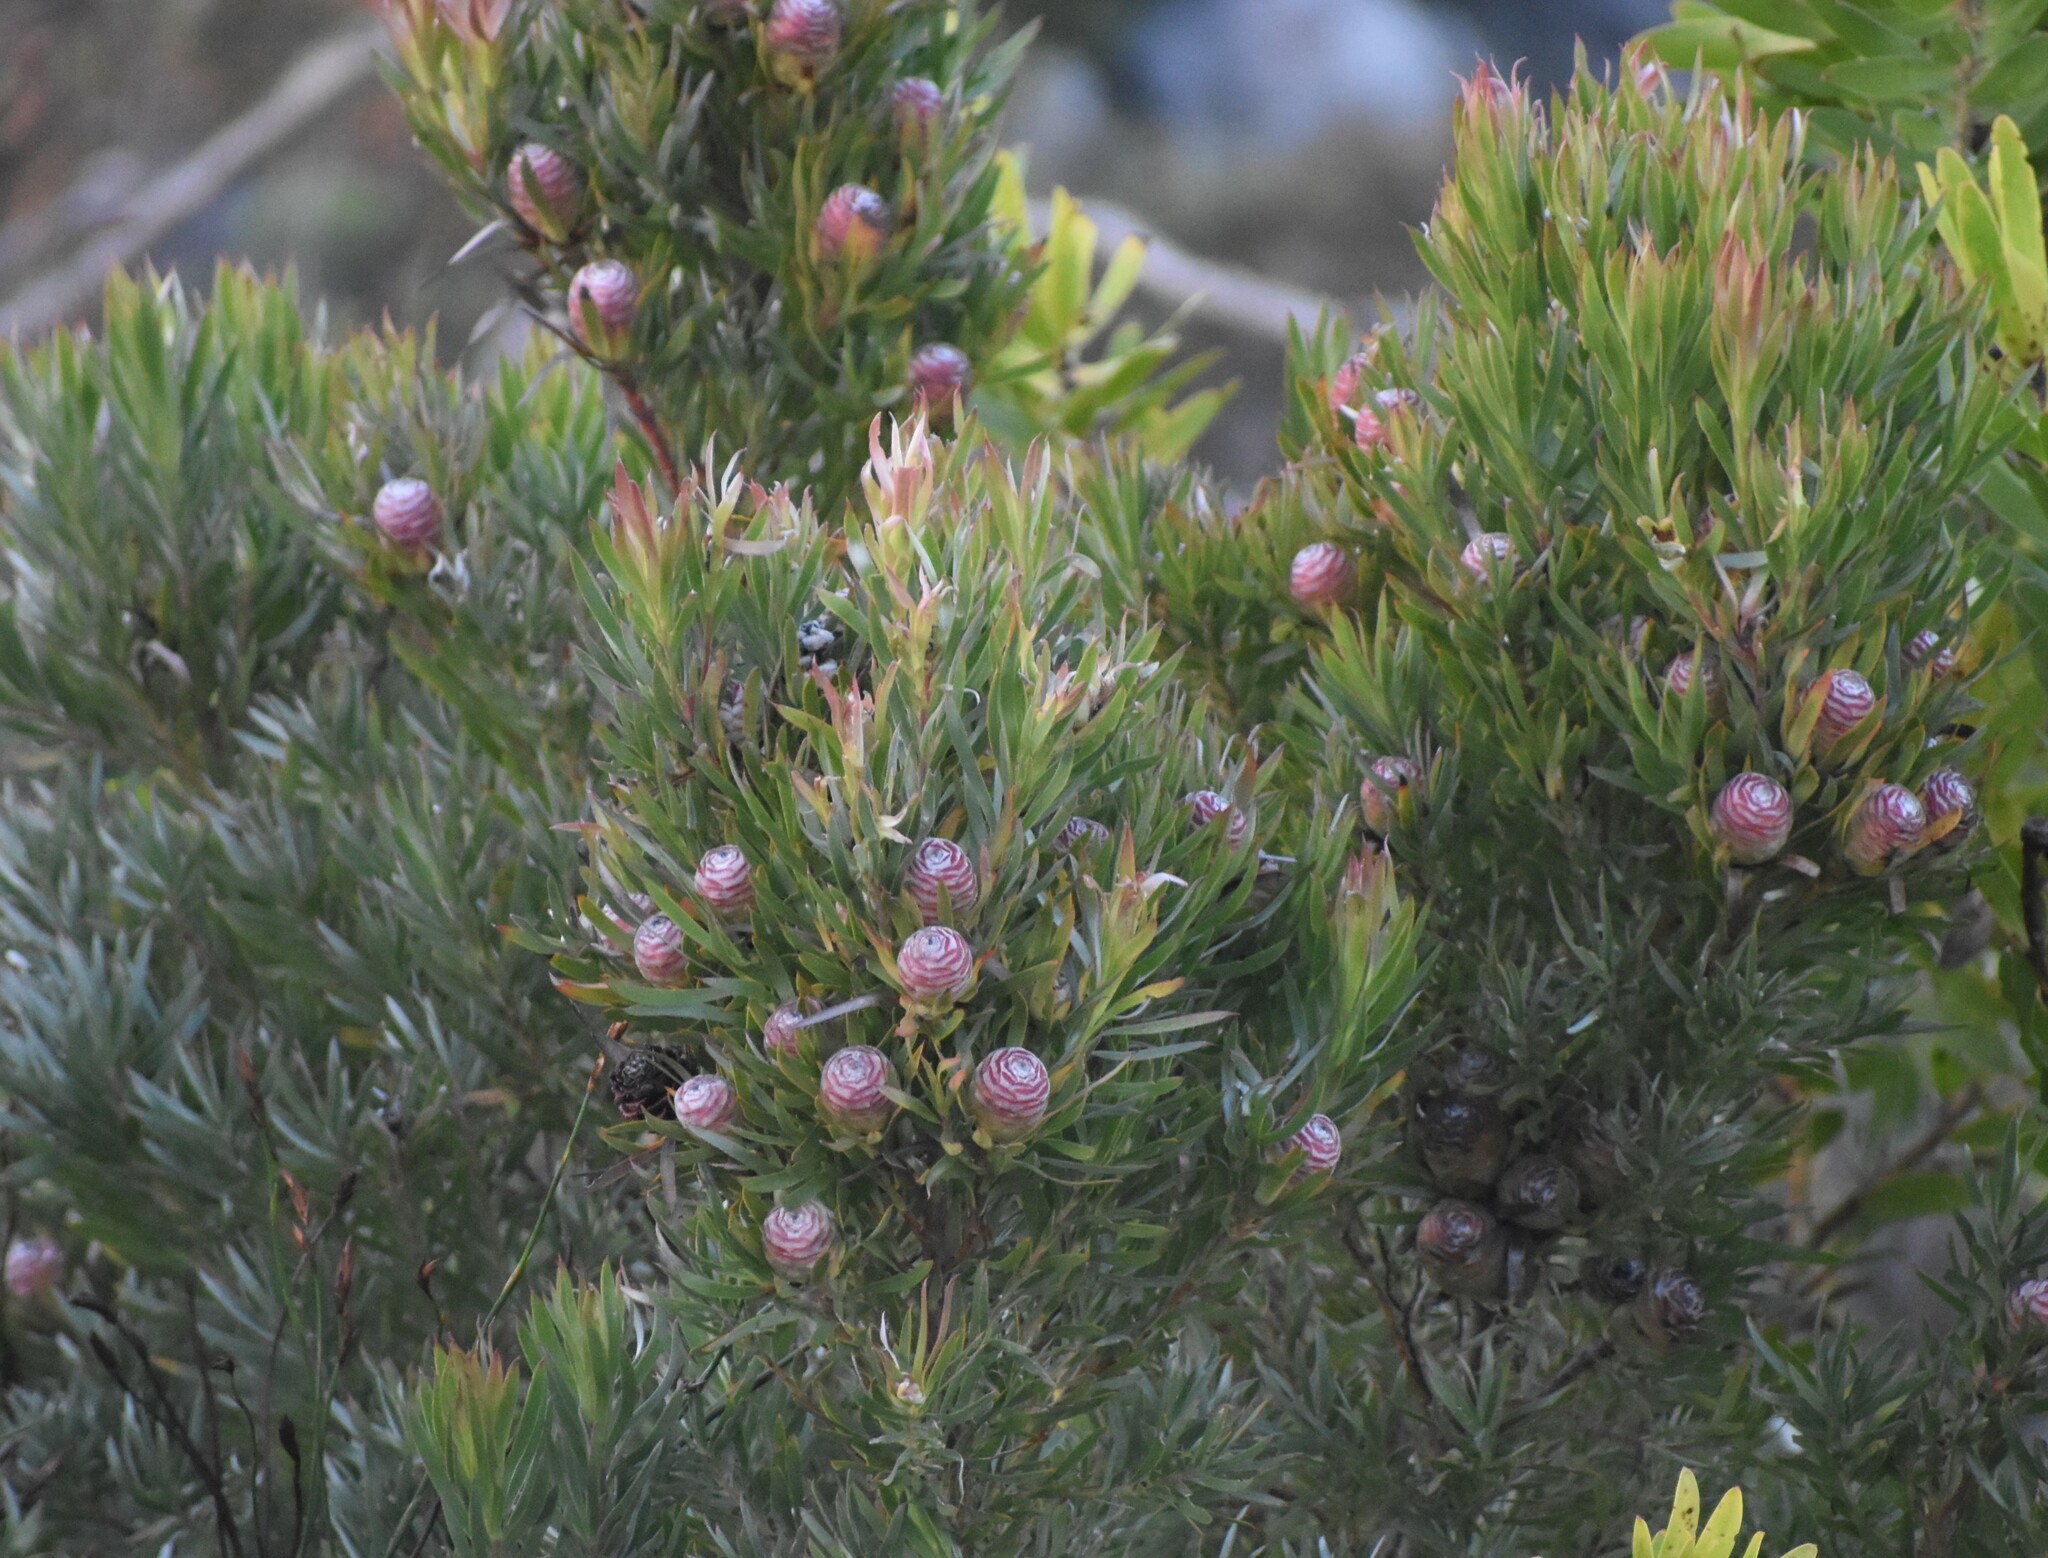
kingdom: Plantae
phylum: Tracheophyta
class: Magnoliopsida
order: Proteales
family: Proteaceae
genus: Leucadendron
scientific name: Leucadendron xanthoconus
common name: Sickle-leaf conebush
